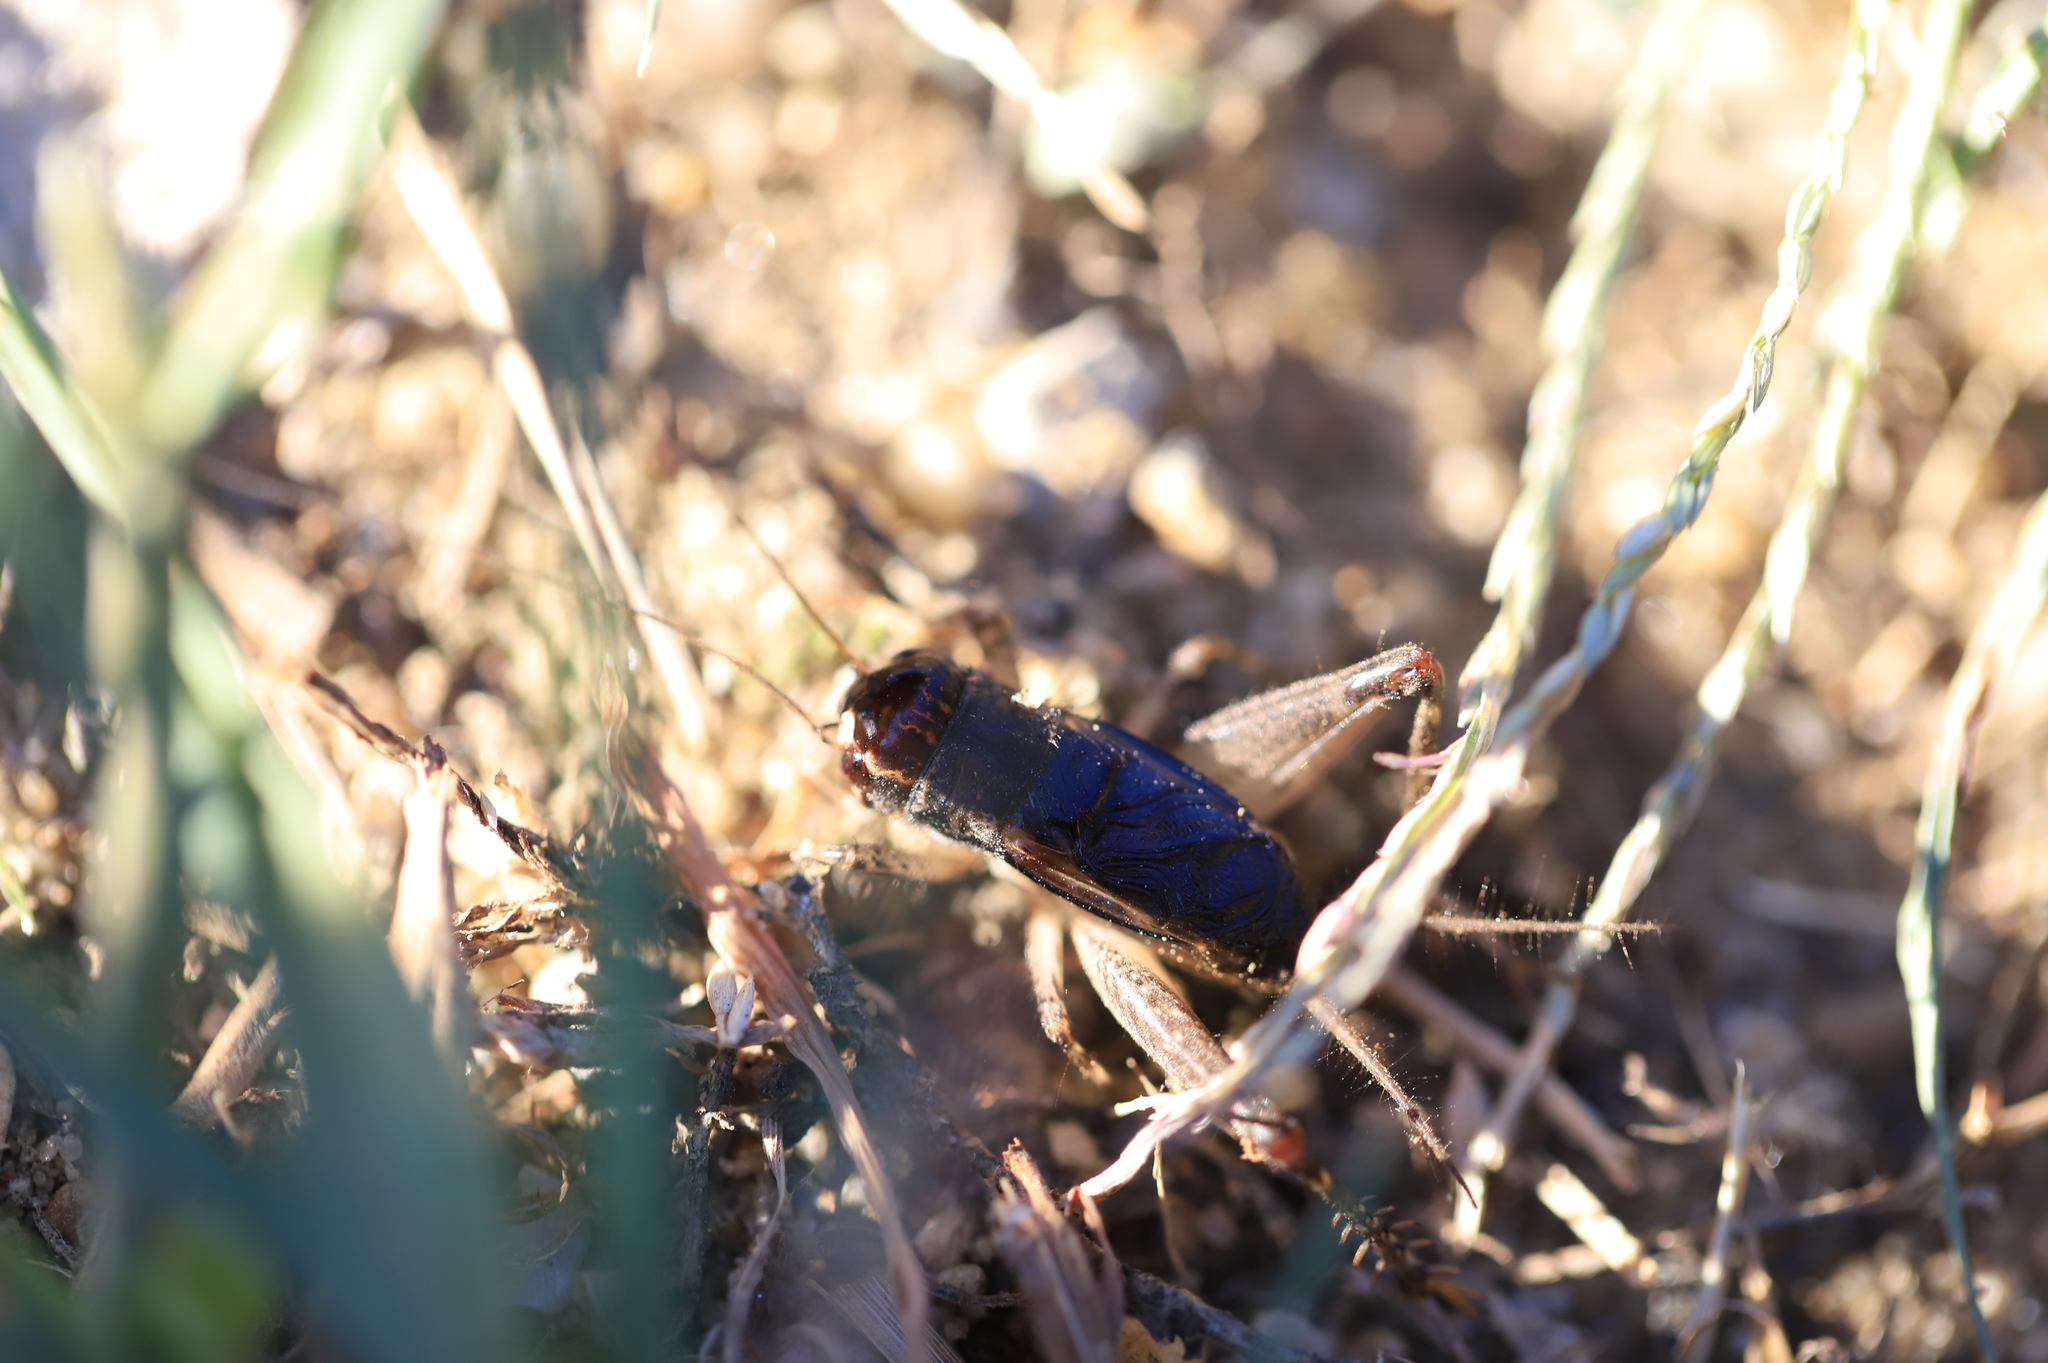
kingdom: Animalia
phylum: Arthropoda
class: Insecta
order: Orthoptera
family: Gryllidae
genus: Velarifictorus
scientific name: Velarifictorus micado
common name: Japanese burrowing cricket
